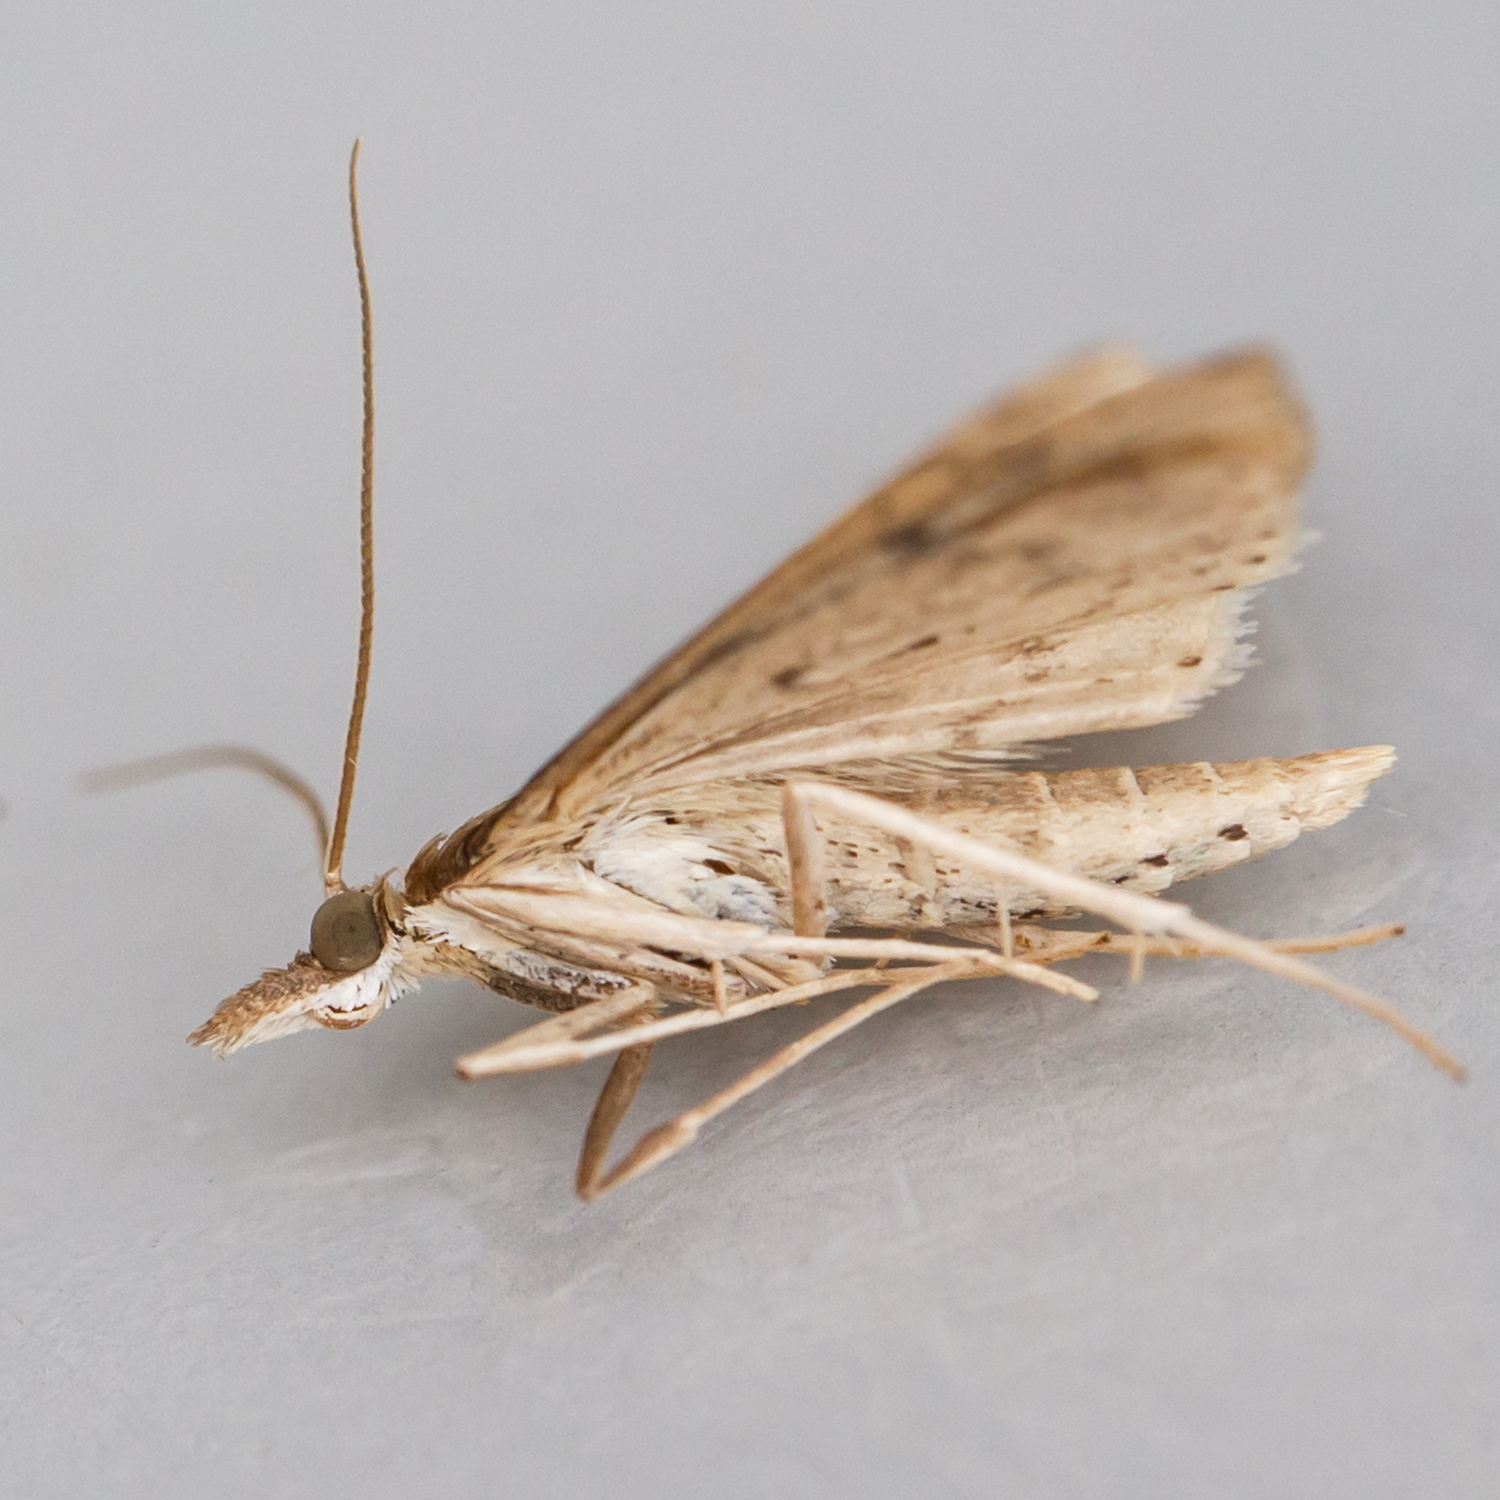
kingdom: Animalia
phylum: Arthropoda
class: Insecta
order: Lepidoptera
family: Crambidae
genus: Udea
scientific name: Udea rubigalis
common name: Celery leaftier moth
